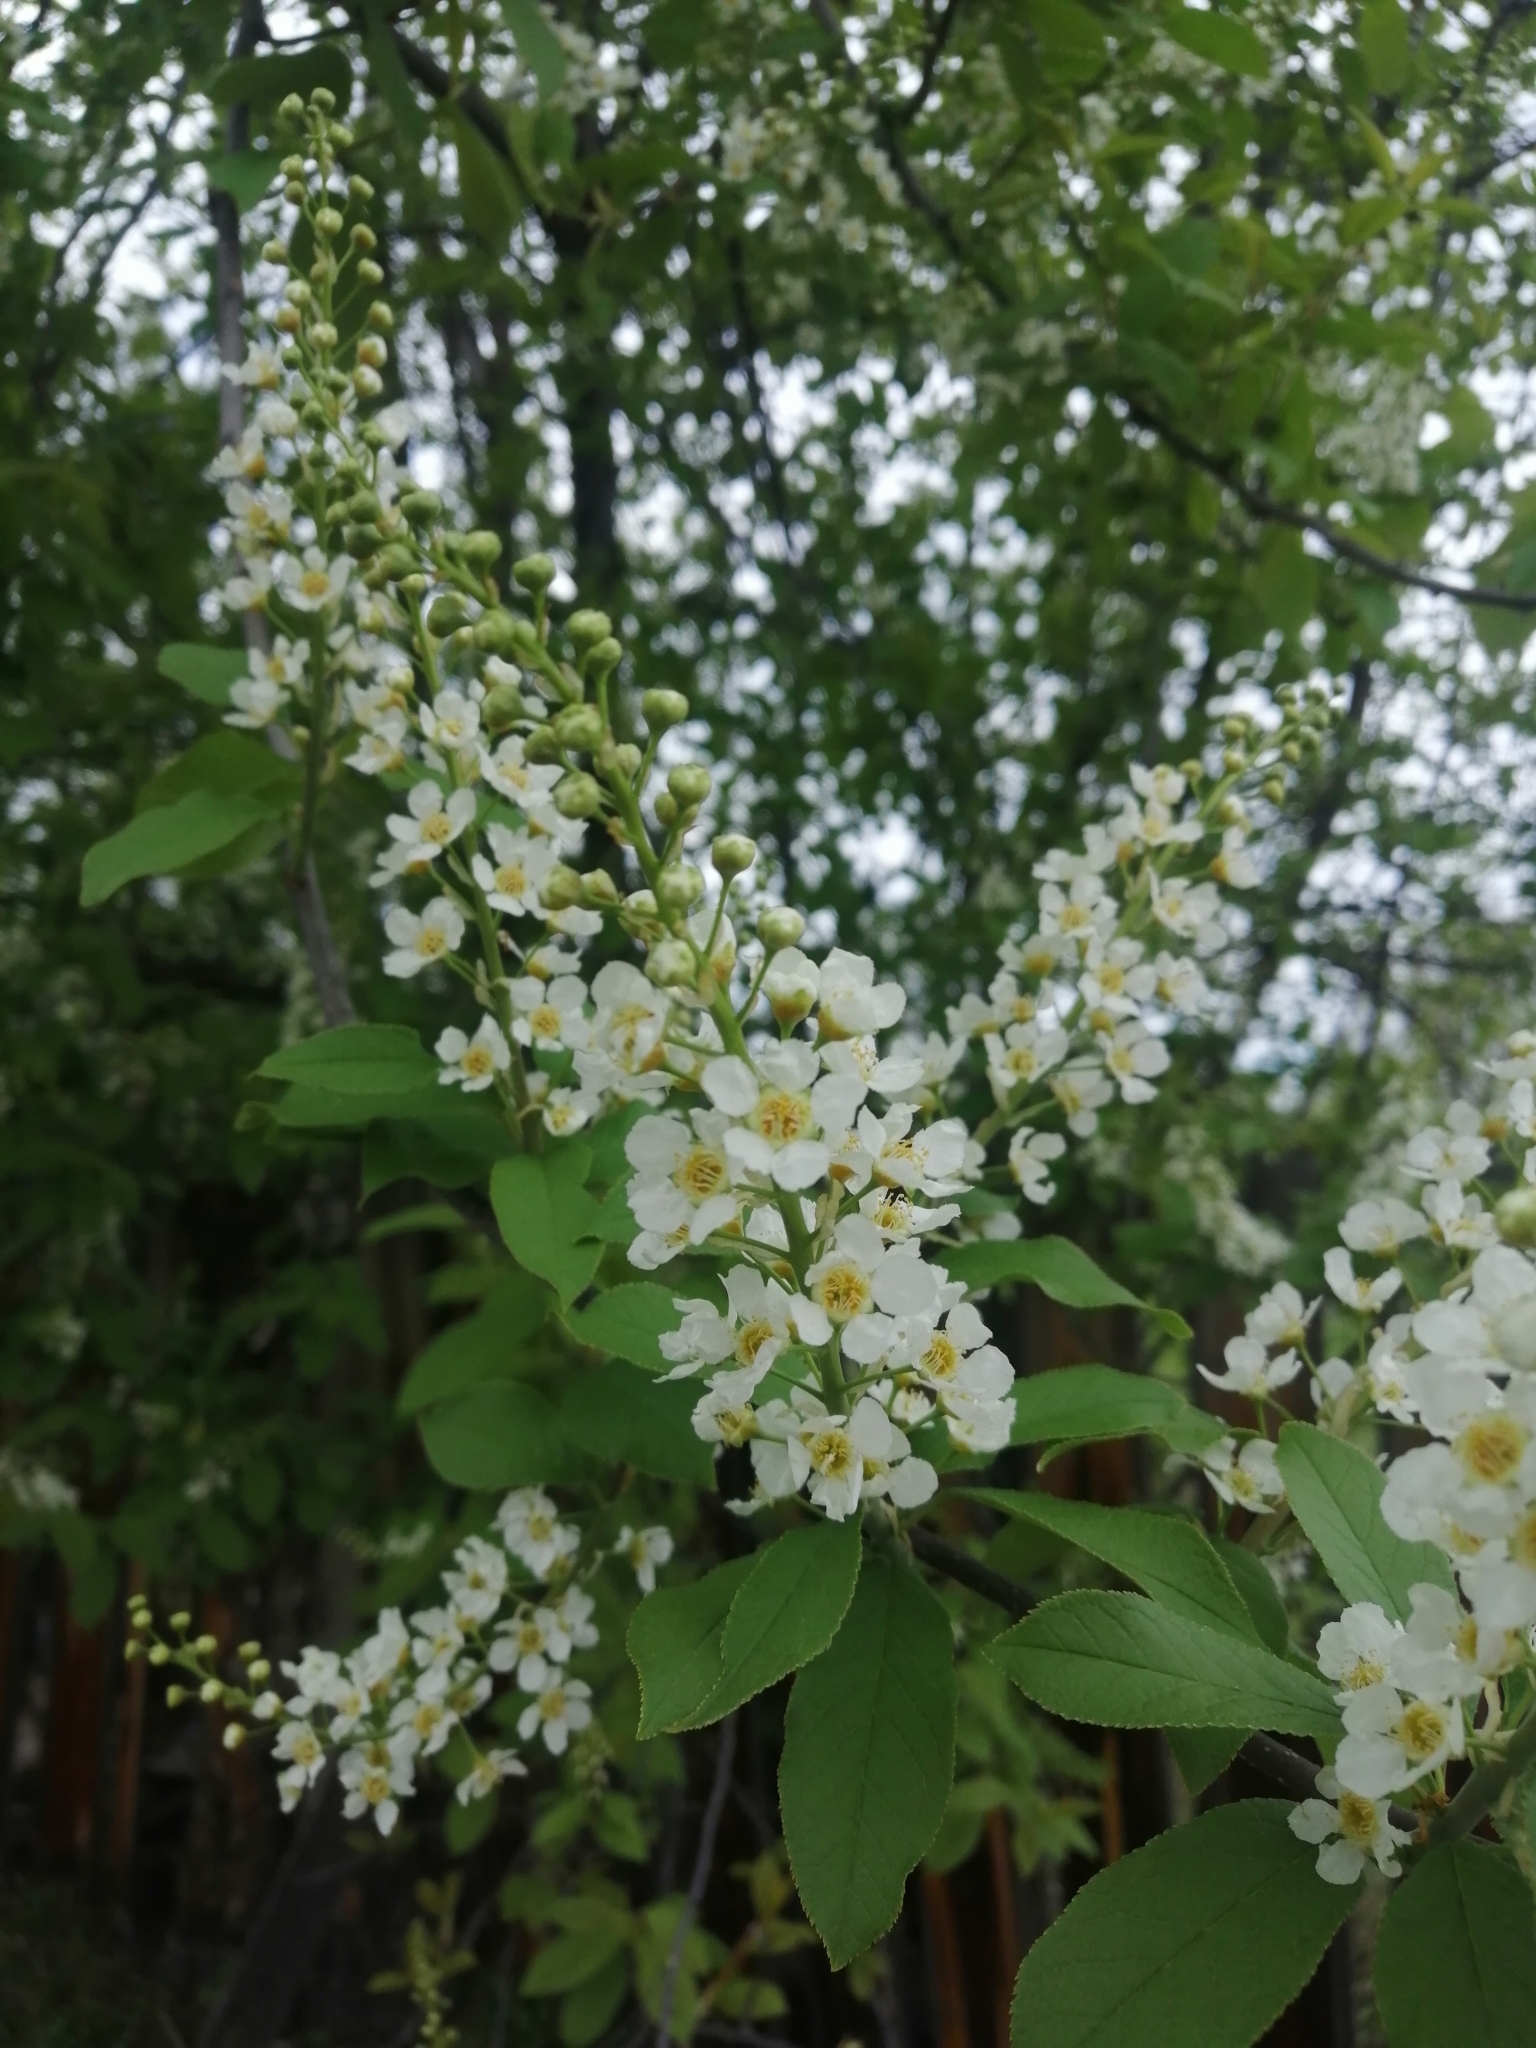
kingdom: Plantae
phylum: Tracheophyta
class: Magnoliopsida
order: Rosales
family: Rosaceae
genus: Prunus
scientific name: Prunus padus
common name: Bird cherry
